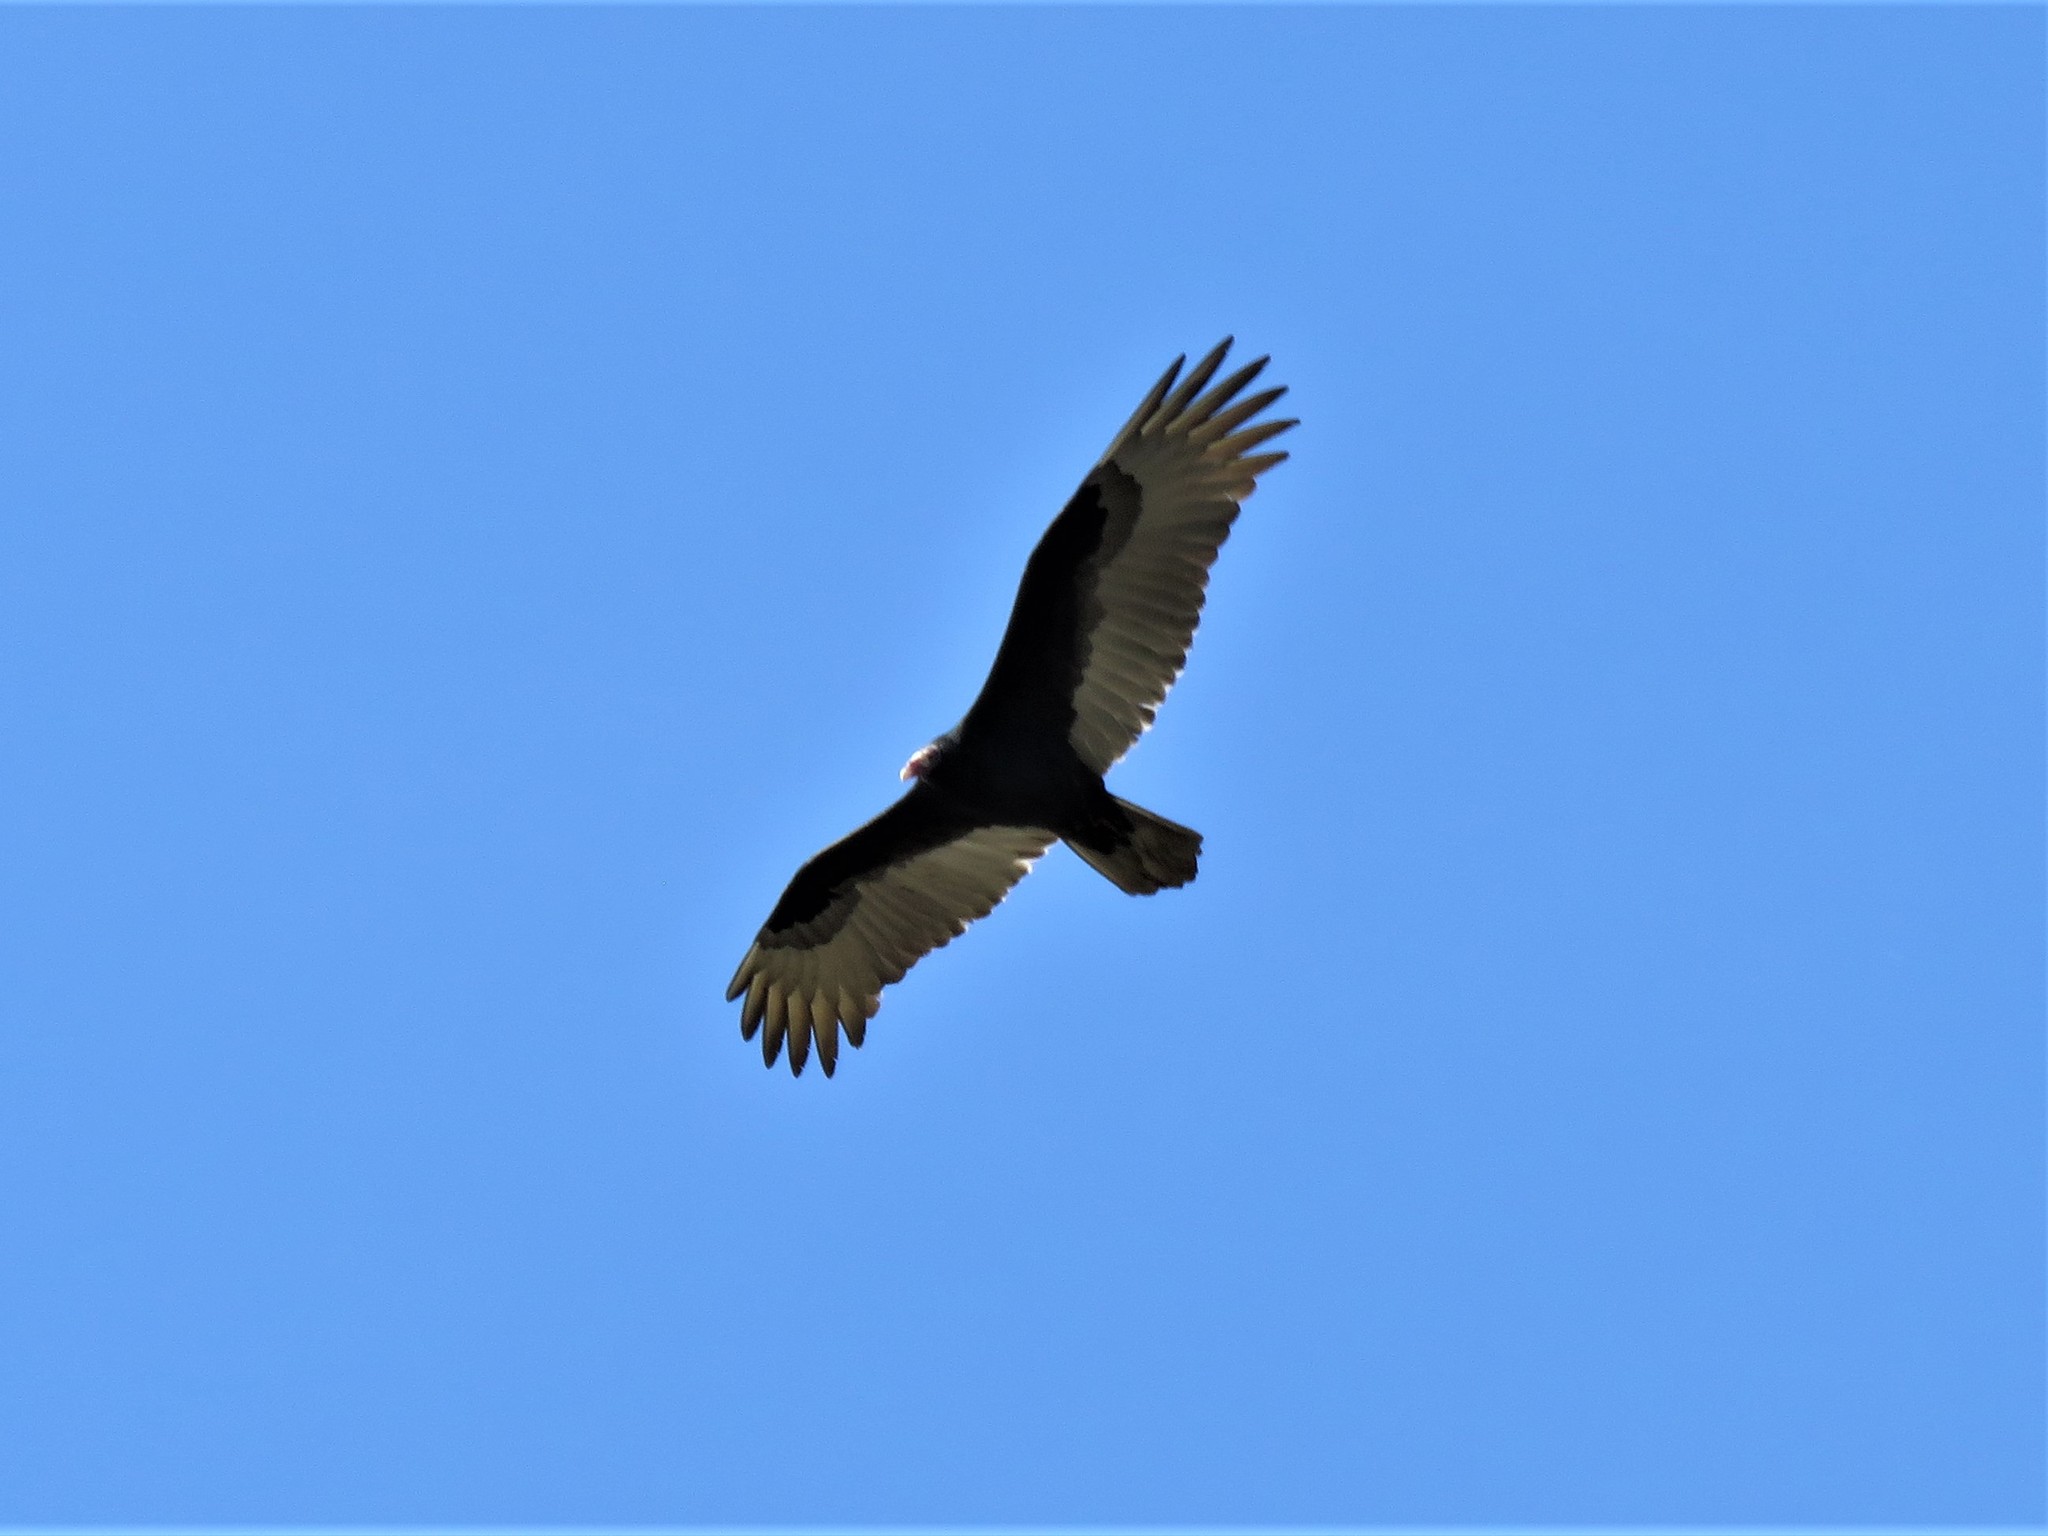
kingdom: Animalia
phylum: Chordata
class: Aves
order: Accipitriformes
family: Cathartidae
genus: Cathartes
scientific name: Cathartes aura
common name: Turkey vulture
